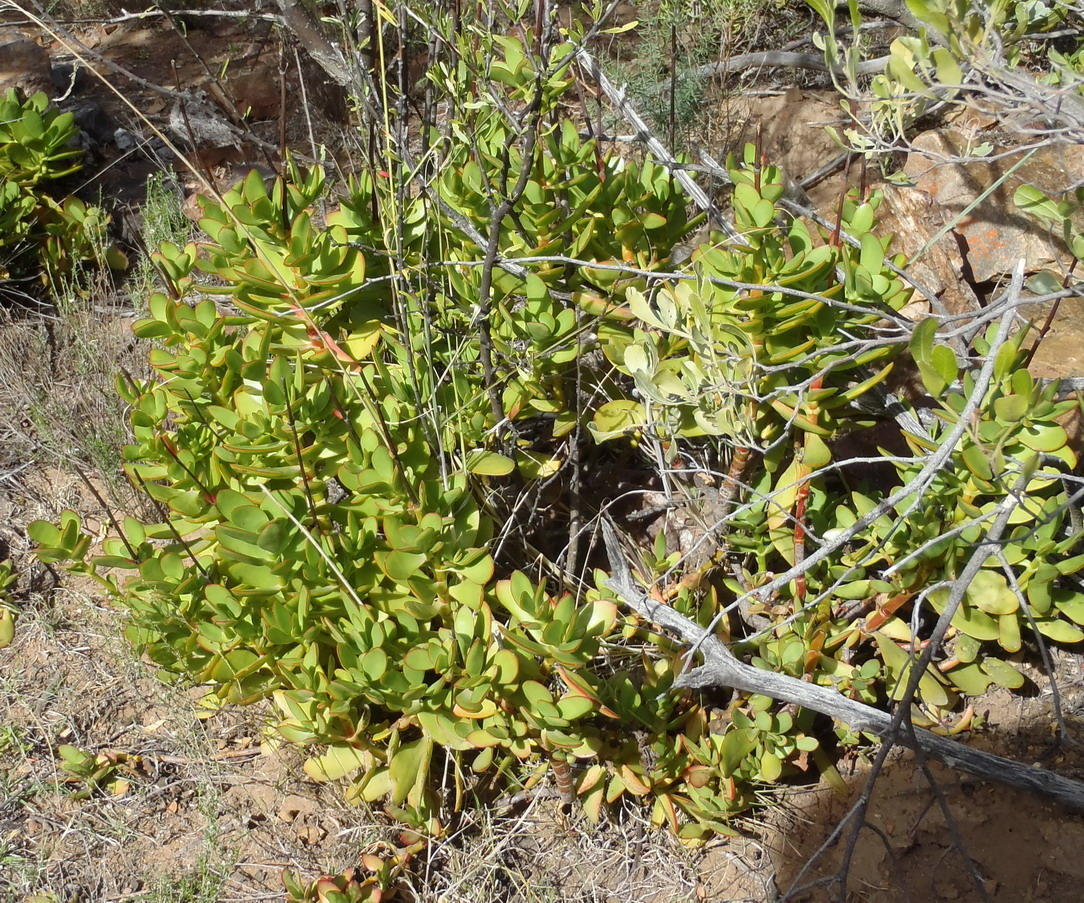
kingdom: Plantae
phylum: Tracheophyta
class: Magnoliopsida
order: Saxifragales
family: Crassulaceae
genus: Crassula
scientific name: Crassula cultrata
